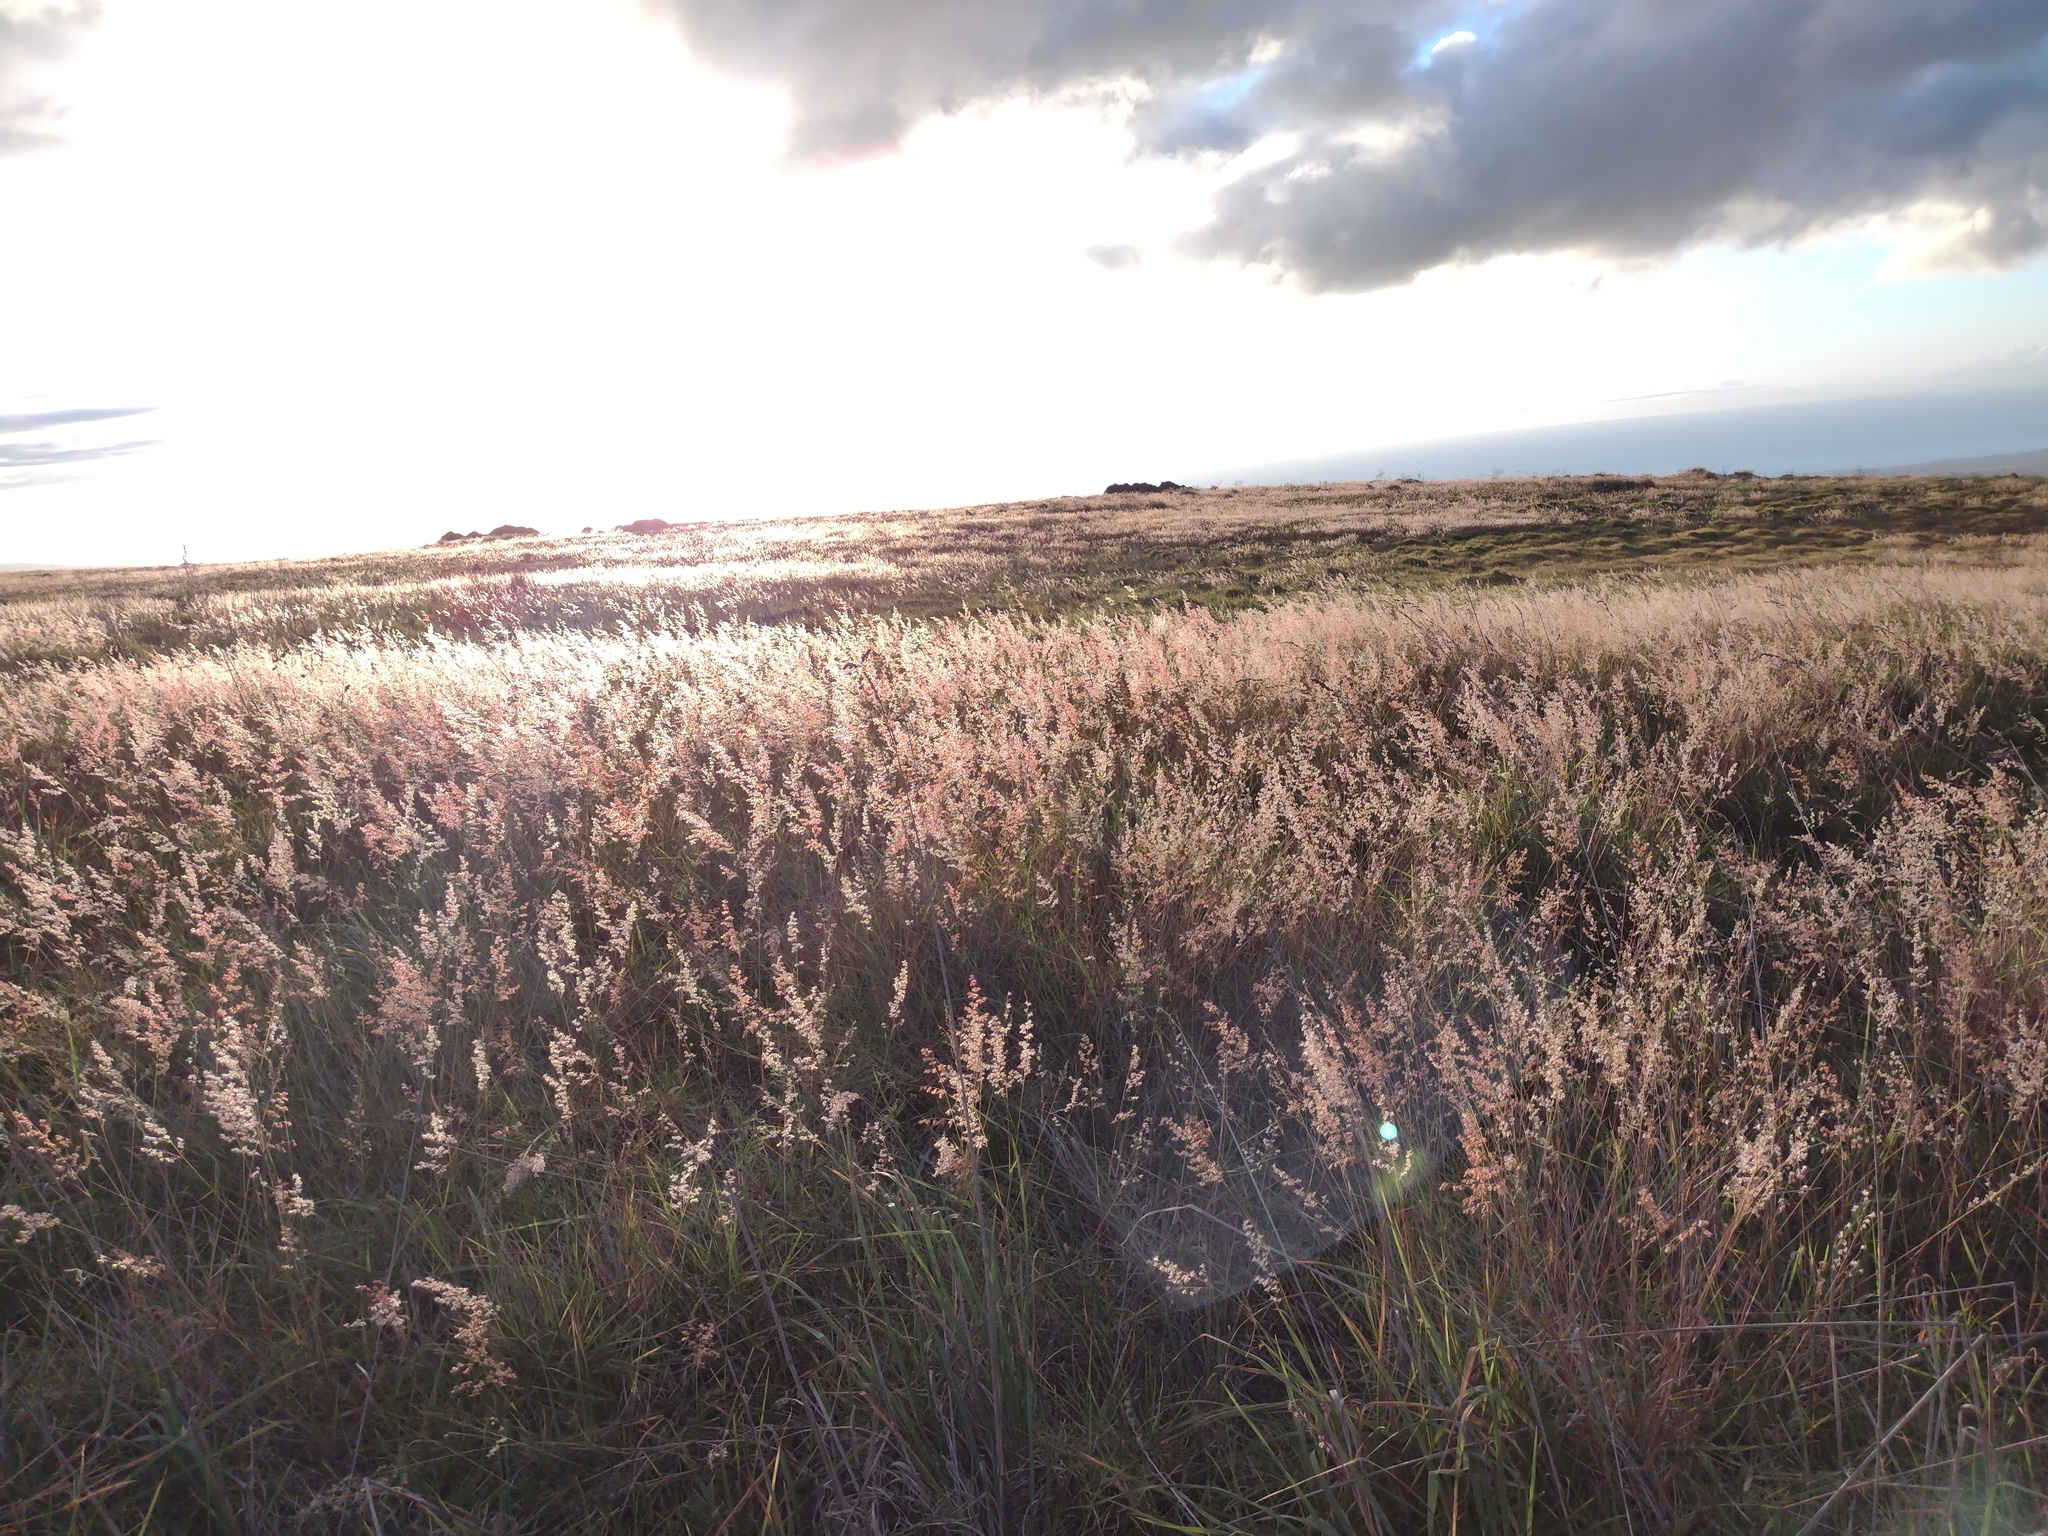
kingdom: Plantae
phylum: Tracheophyta
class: Liliopsida
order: Poales
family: Poaceae
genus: Melinis
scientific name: Melinis repens
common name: Rose natal grass
